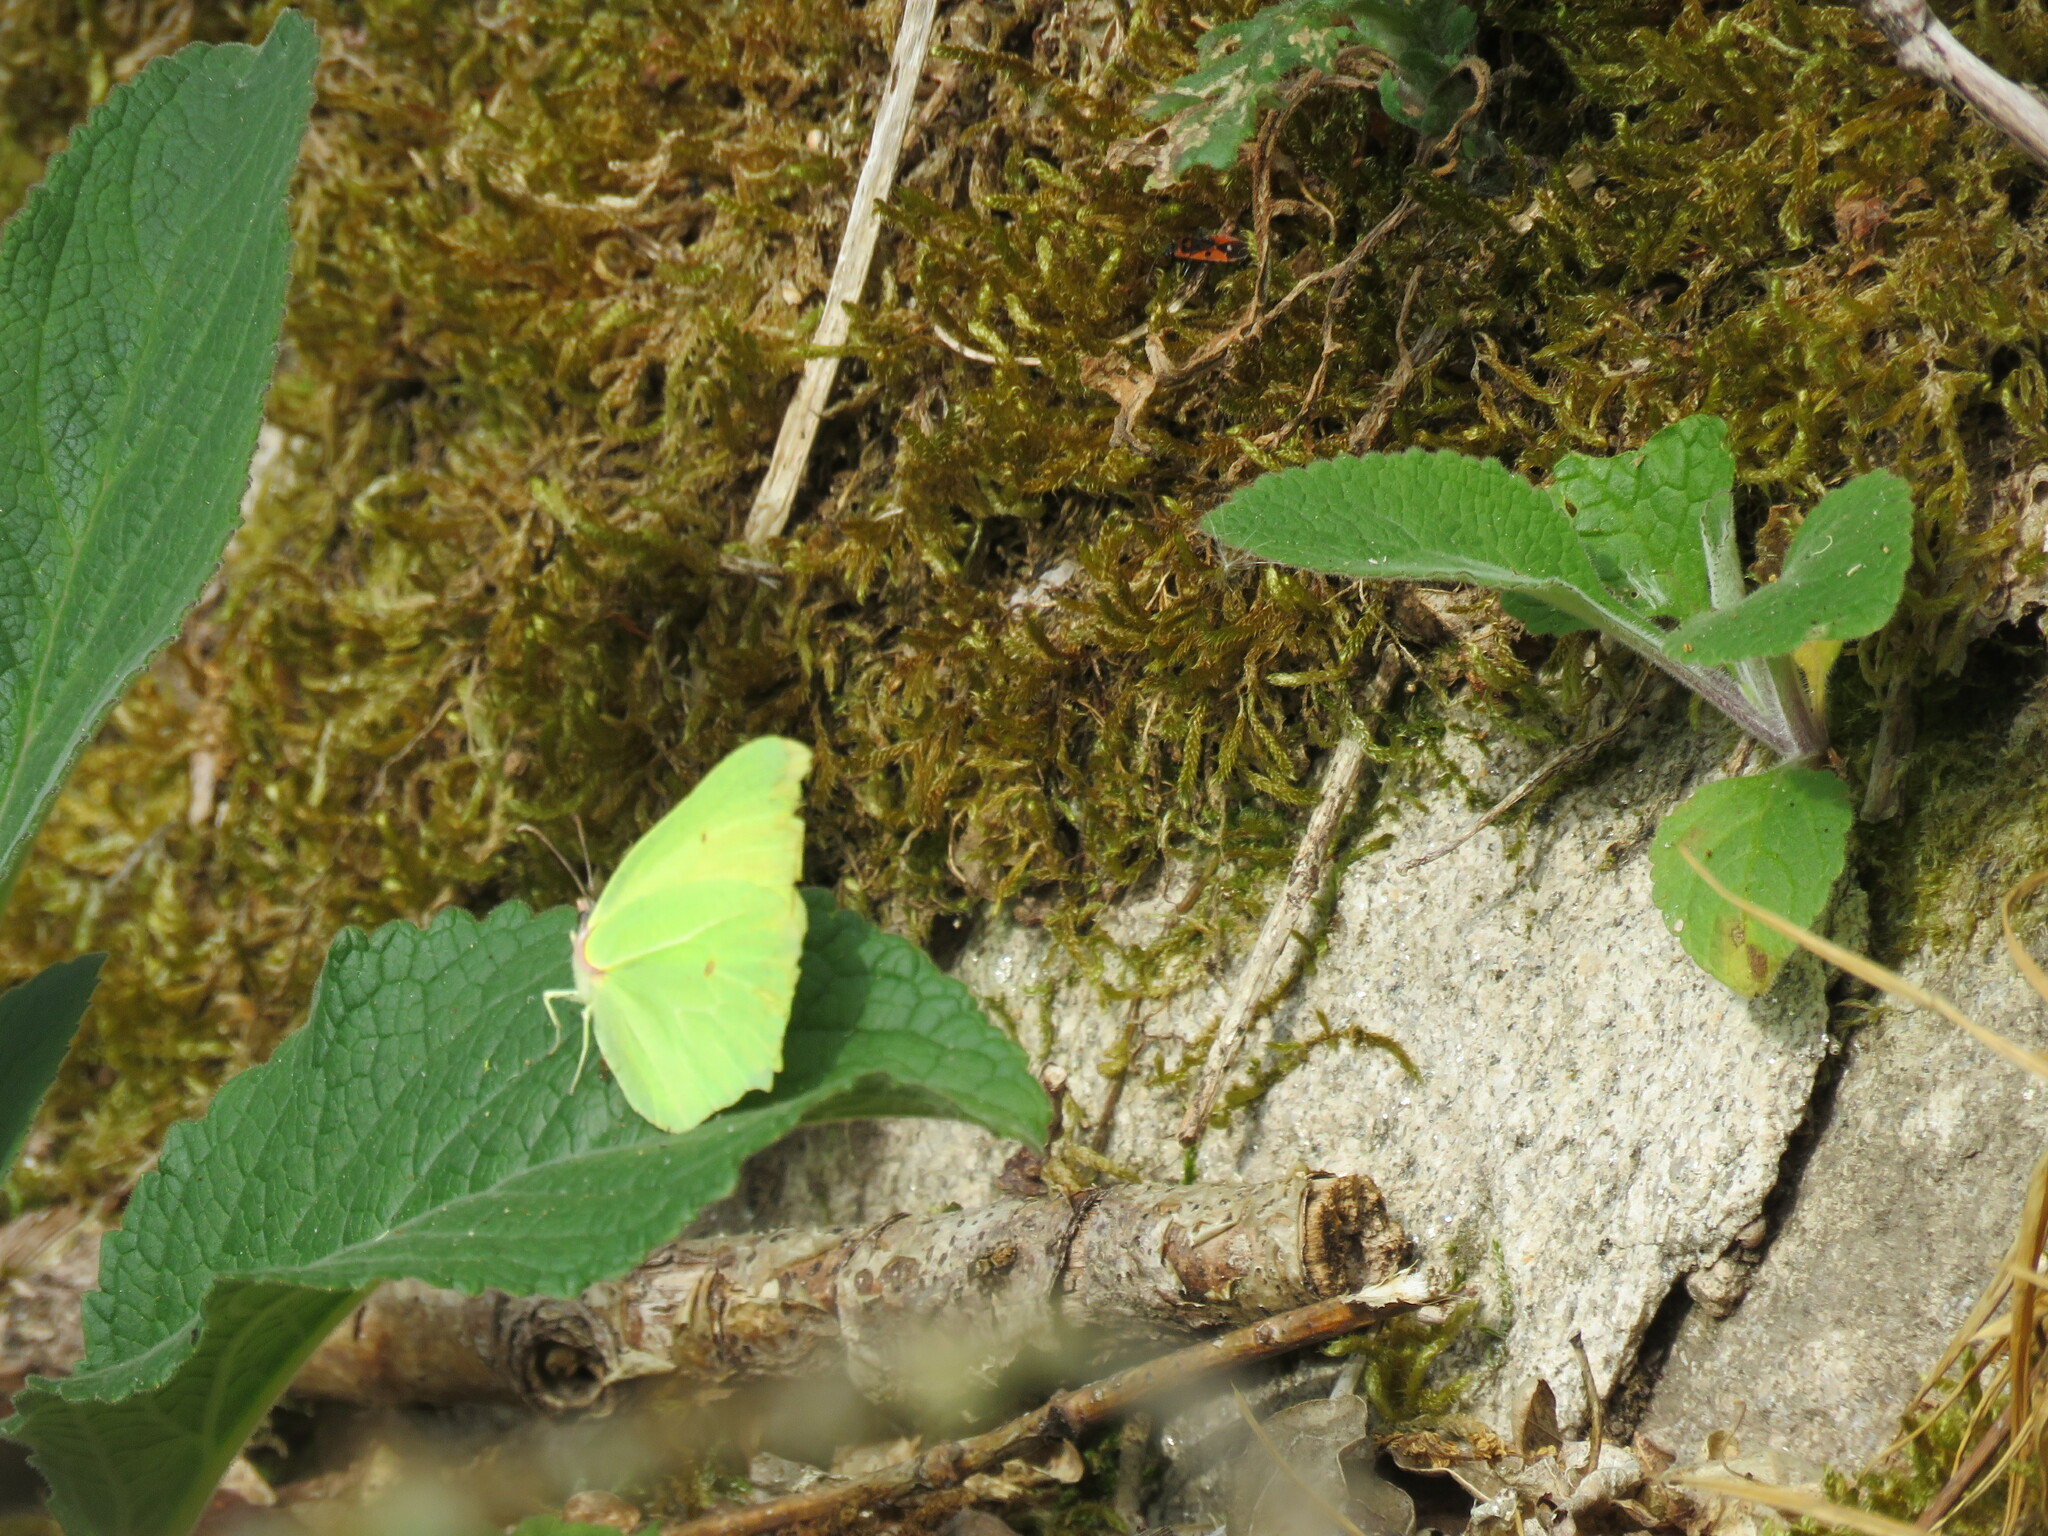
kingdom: Animalia
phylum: Arthropoda
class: Insecta
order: Lepidoptera
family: Pieridae
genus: Gonepteryx
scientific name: Gonepteryx rhamni
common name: Brimstone
